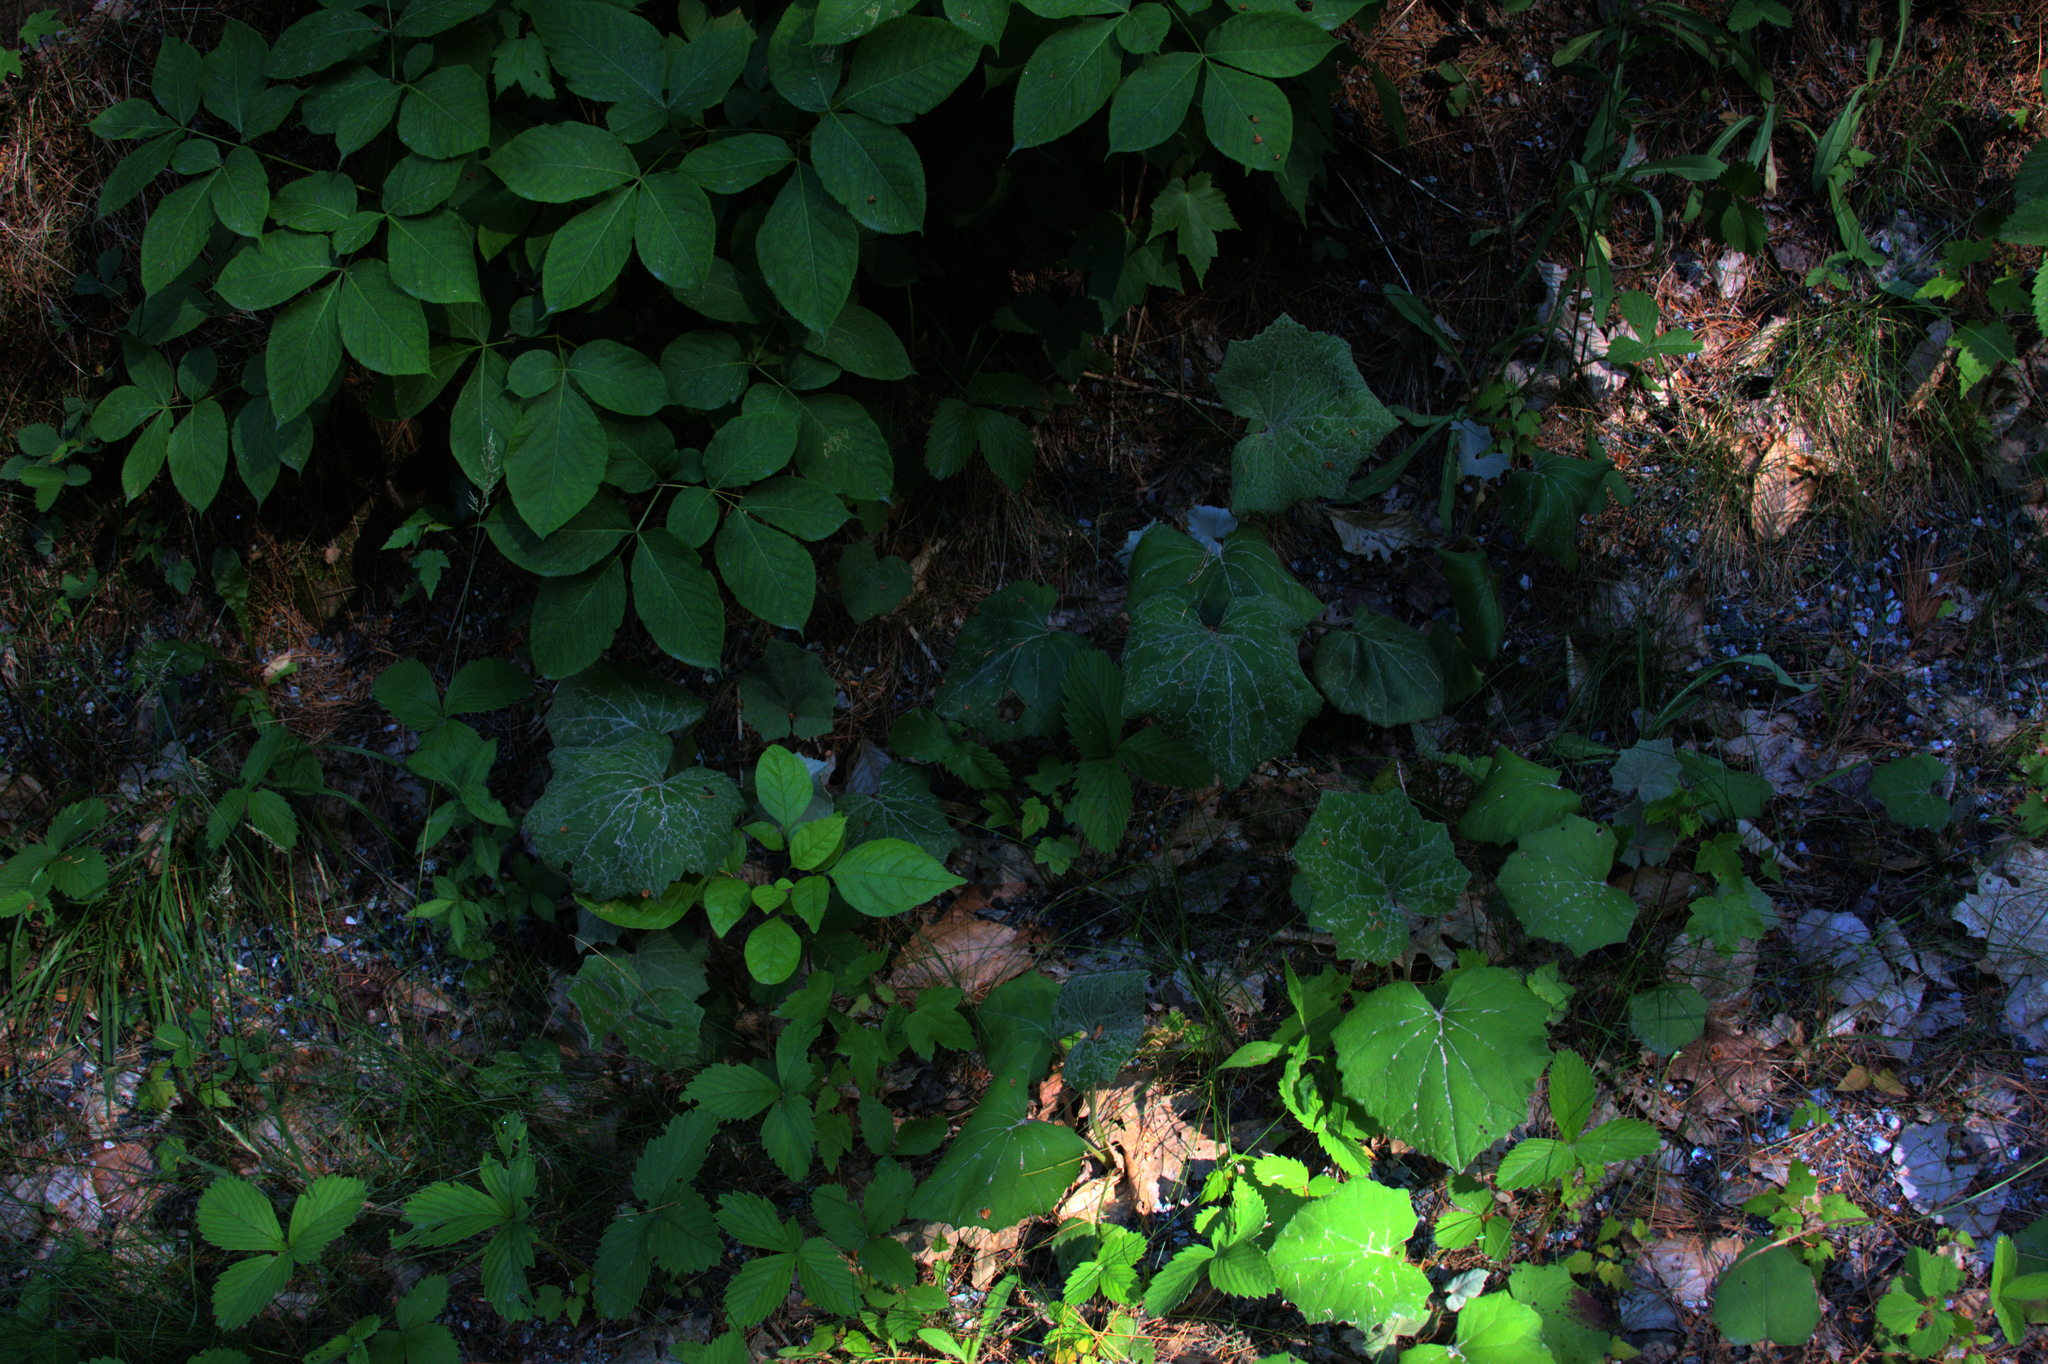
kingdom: Plantae
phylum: Tracheophyta
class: Magnoliopsida
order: Asterales
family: Asteraceae
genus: Tussilago
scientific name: Tussilago farfara
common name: Coltsfoot
